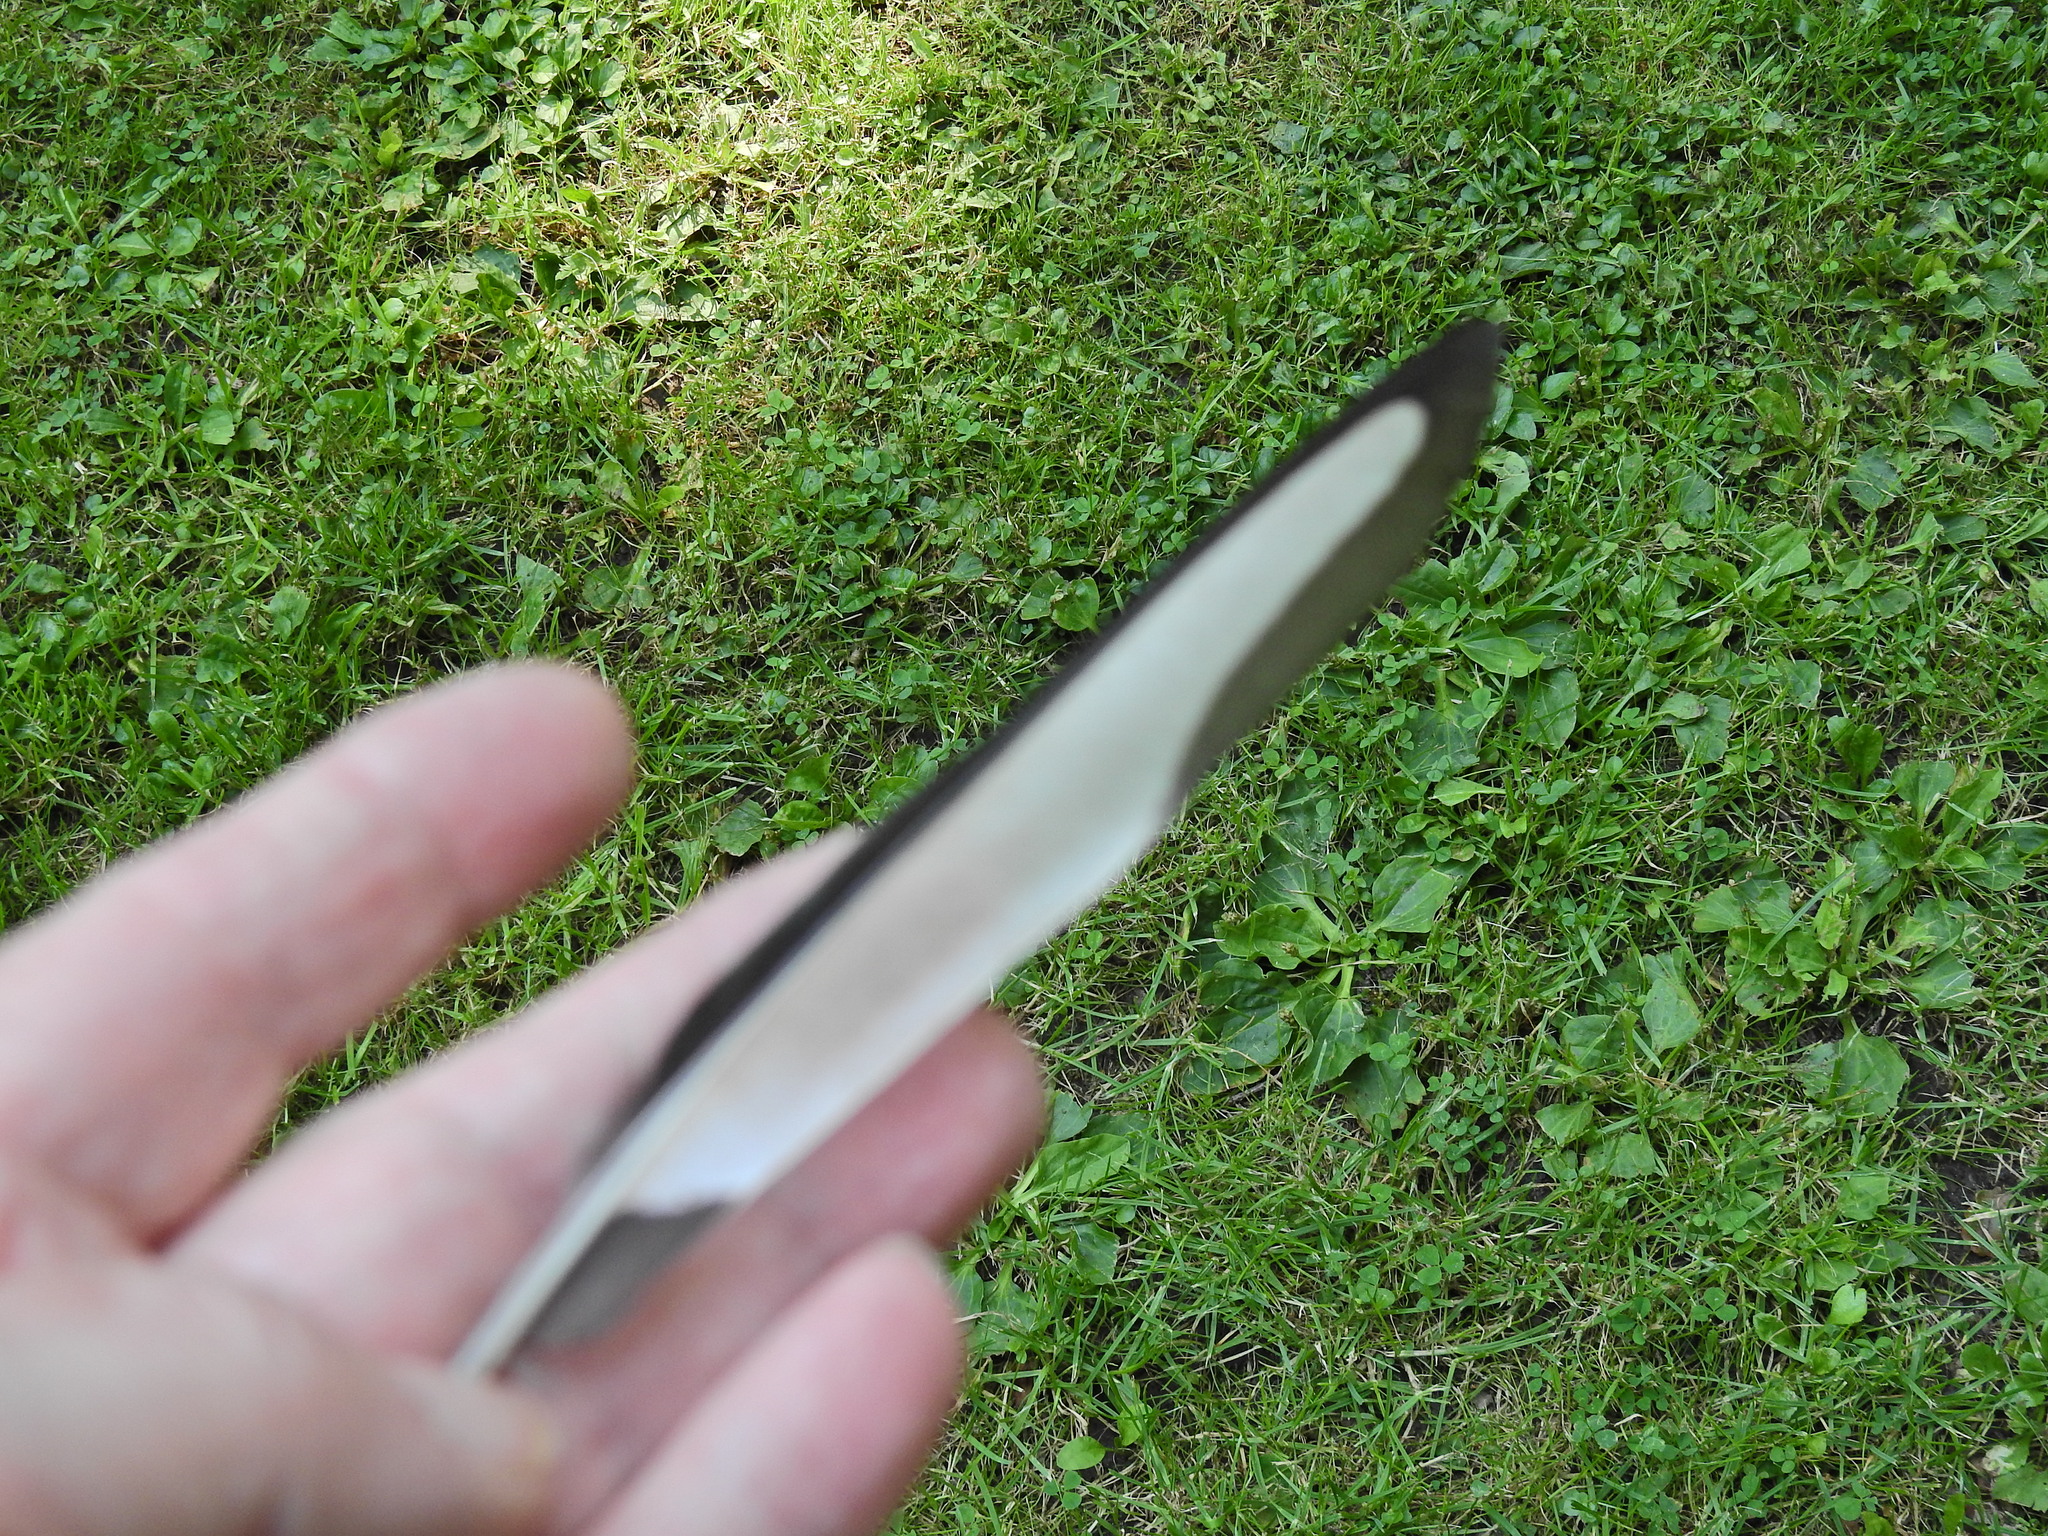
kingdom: Animalia
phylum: Chordata
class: Aves
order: Passeriformes
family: Corvidae
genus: Pica
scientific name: Pica pica
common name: Eurasian magpie
